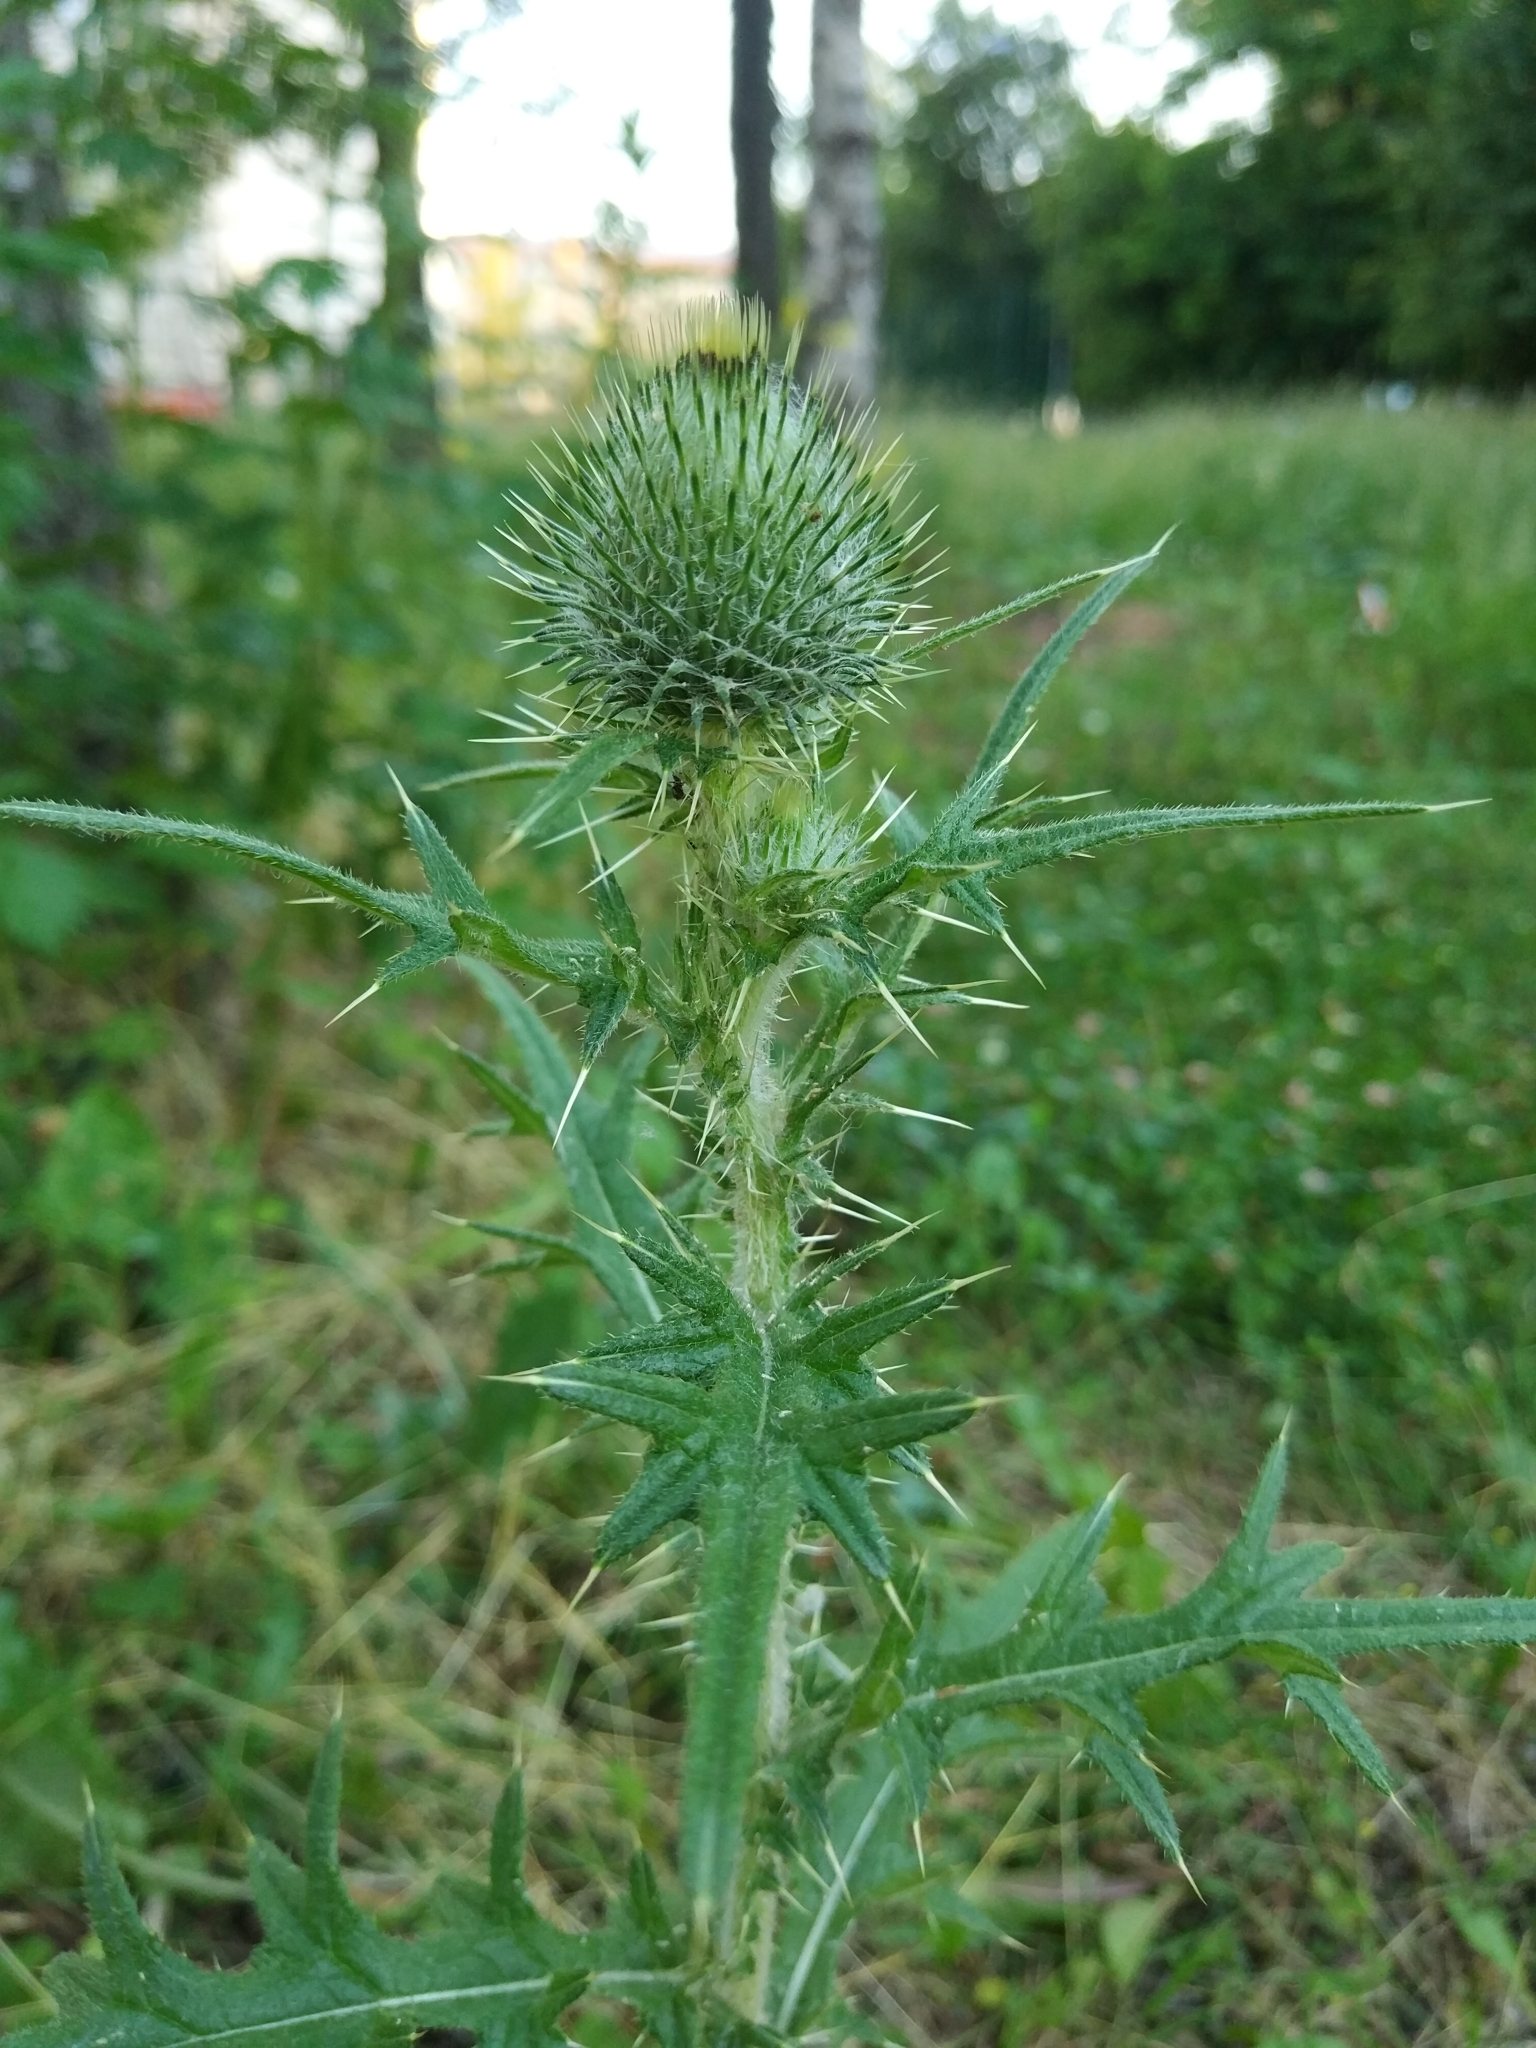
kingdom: Plantae
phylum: Tracheophyta
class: Magnoliopsida
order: Asterales
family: Asteraceae
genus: Cirsium
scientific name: Cirsium vulgare
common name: Bull thistle
